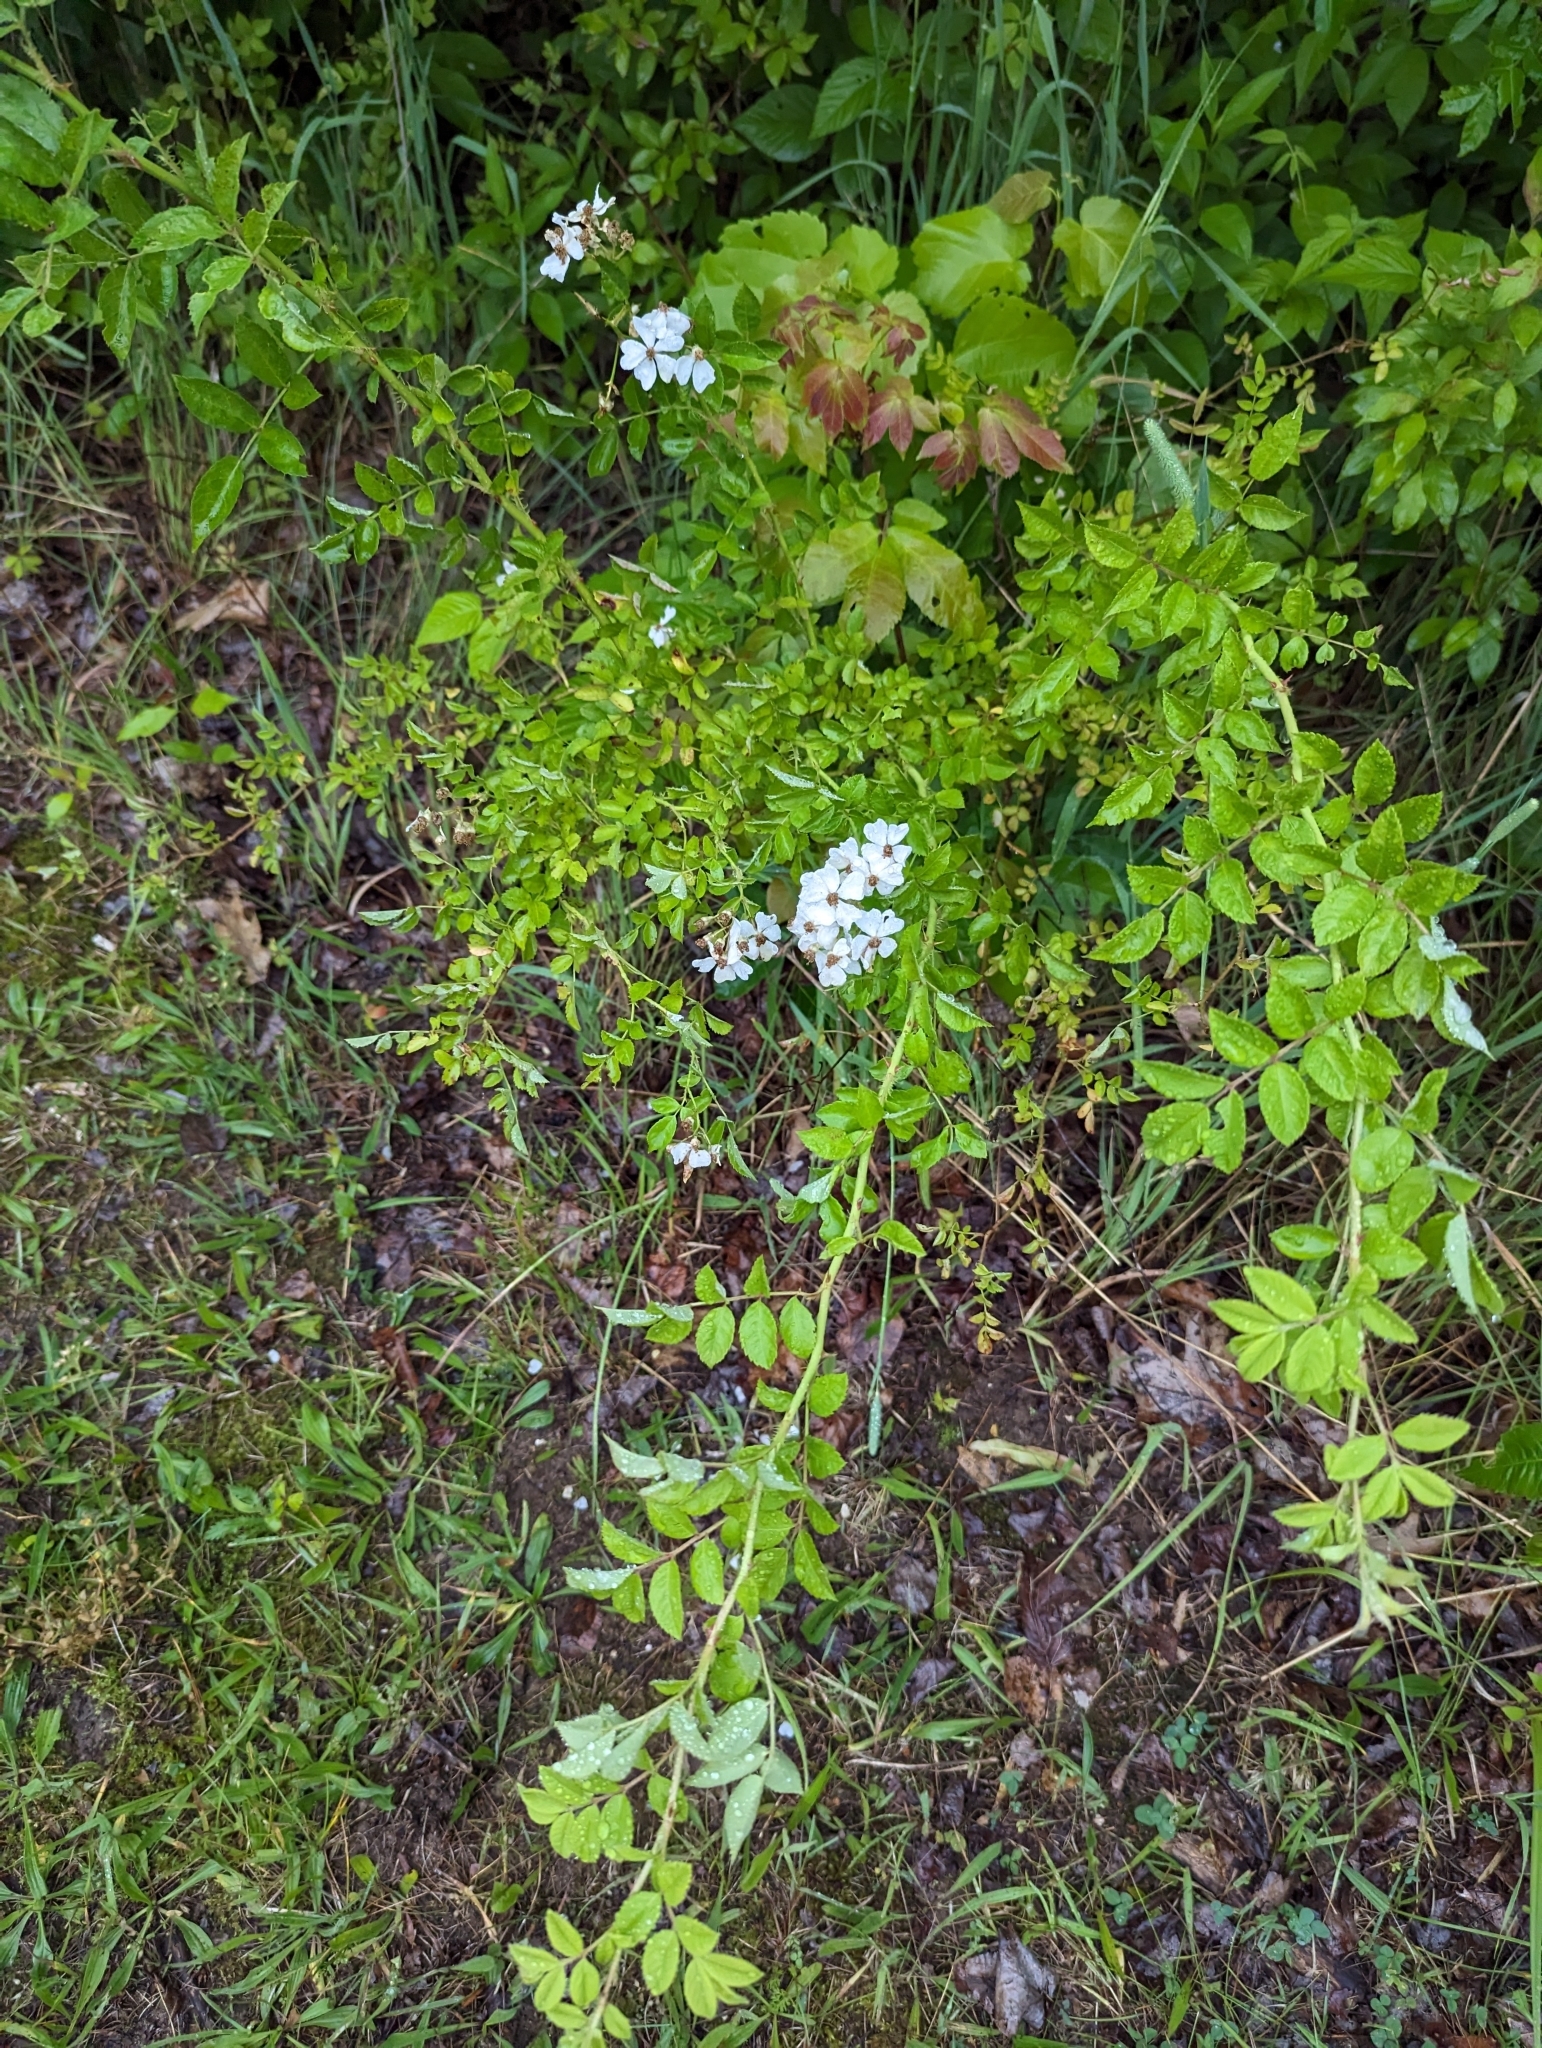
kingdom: Plantae
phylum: Tracheophyta
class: Magnoliopsida
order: Rosales
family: Rosaceae
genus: Rosa
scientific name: Rosa multiflora
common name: Multiflora rose
